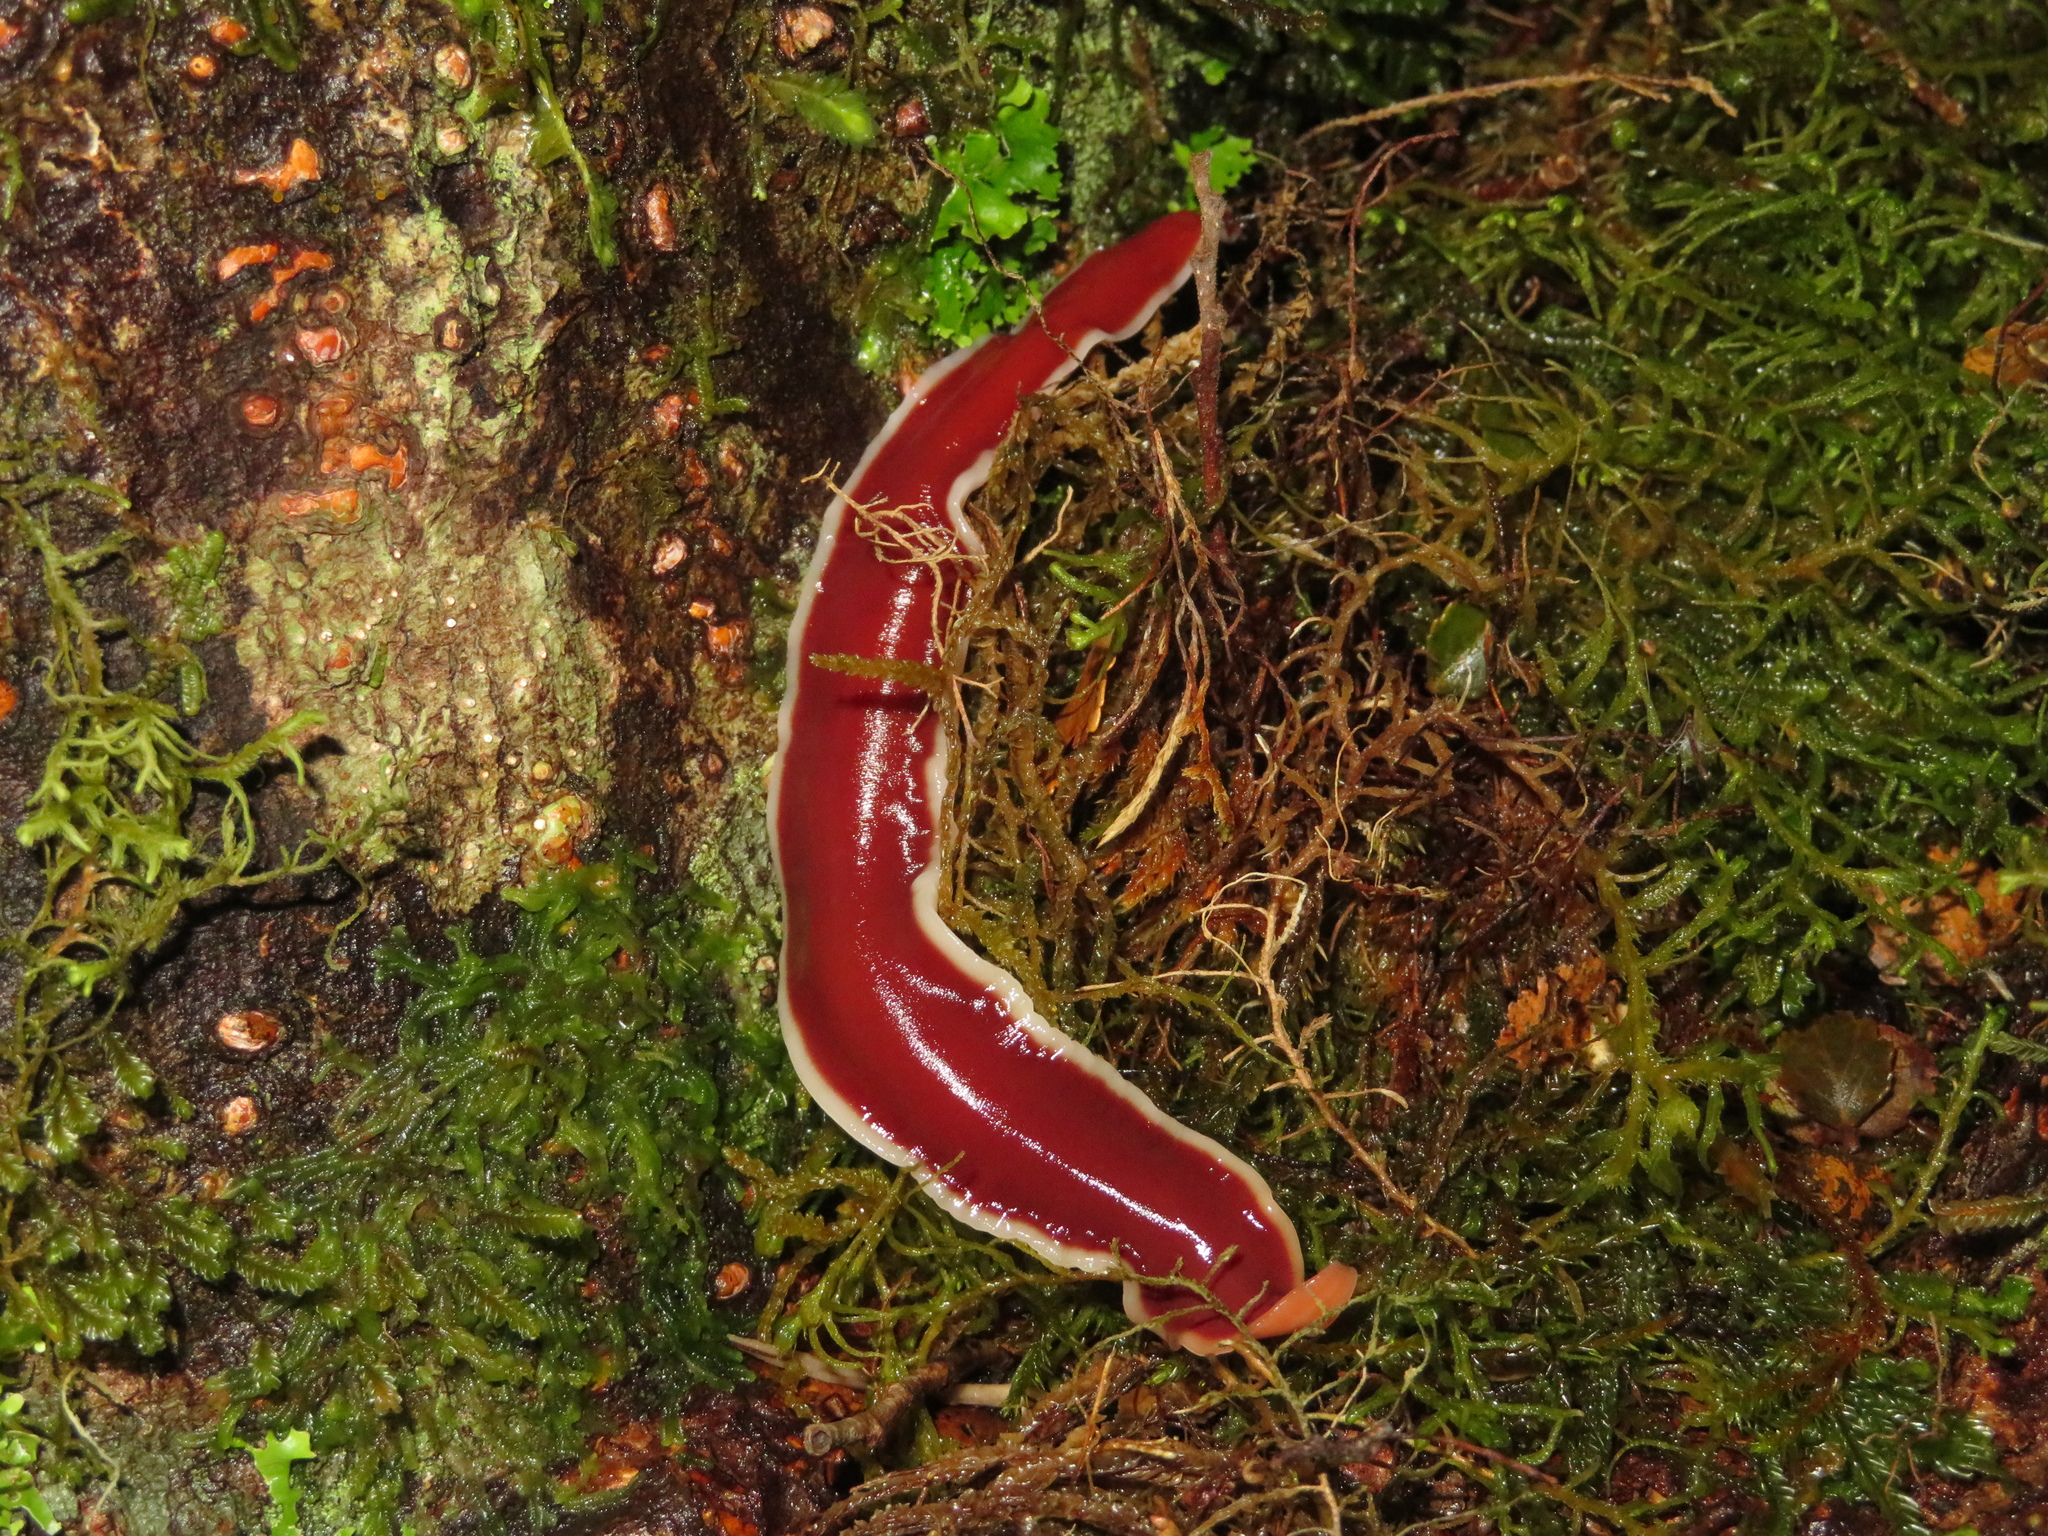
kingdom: Animalia
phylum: Platyhelminthes
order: Tricladida
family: Geoplanidae
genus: Arthurdendyus
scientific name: Arthurdendyus testaceus
